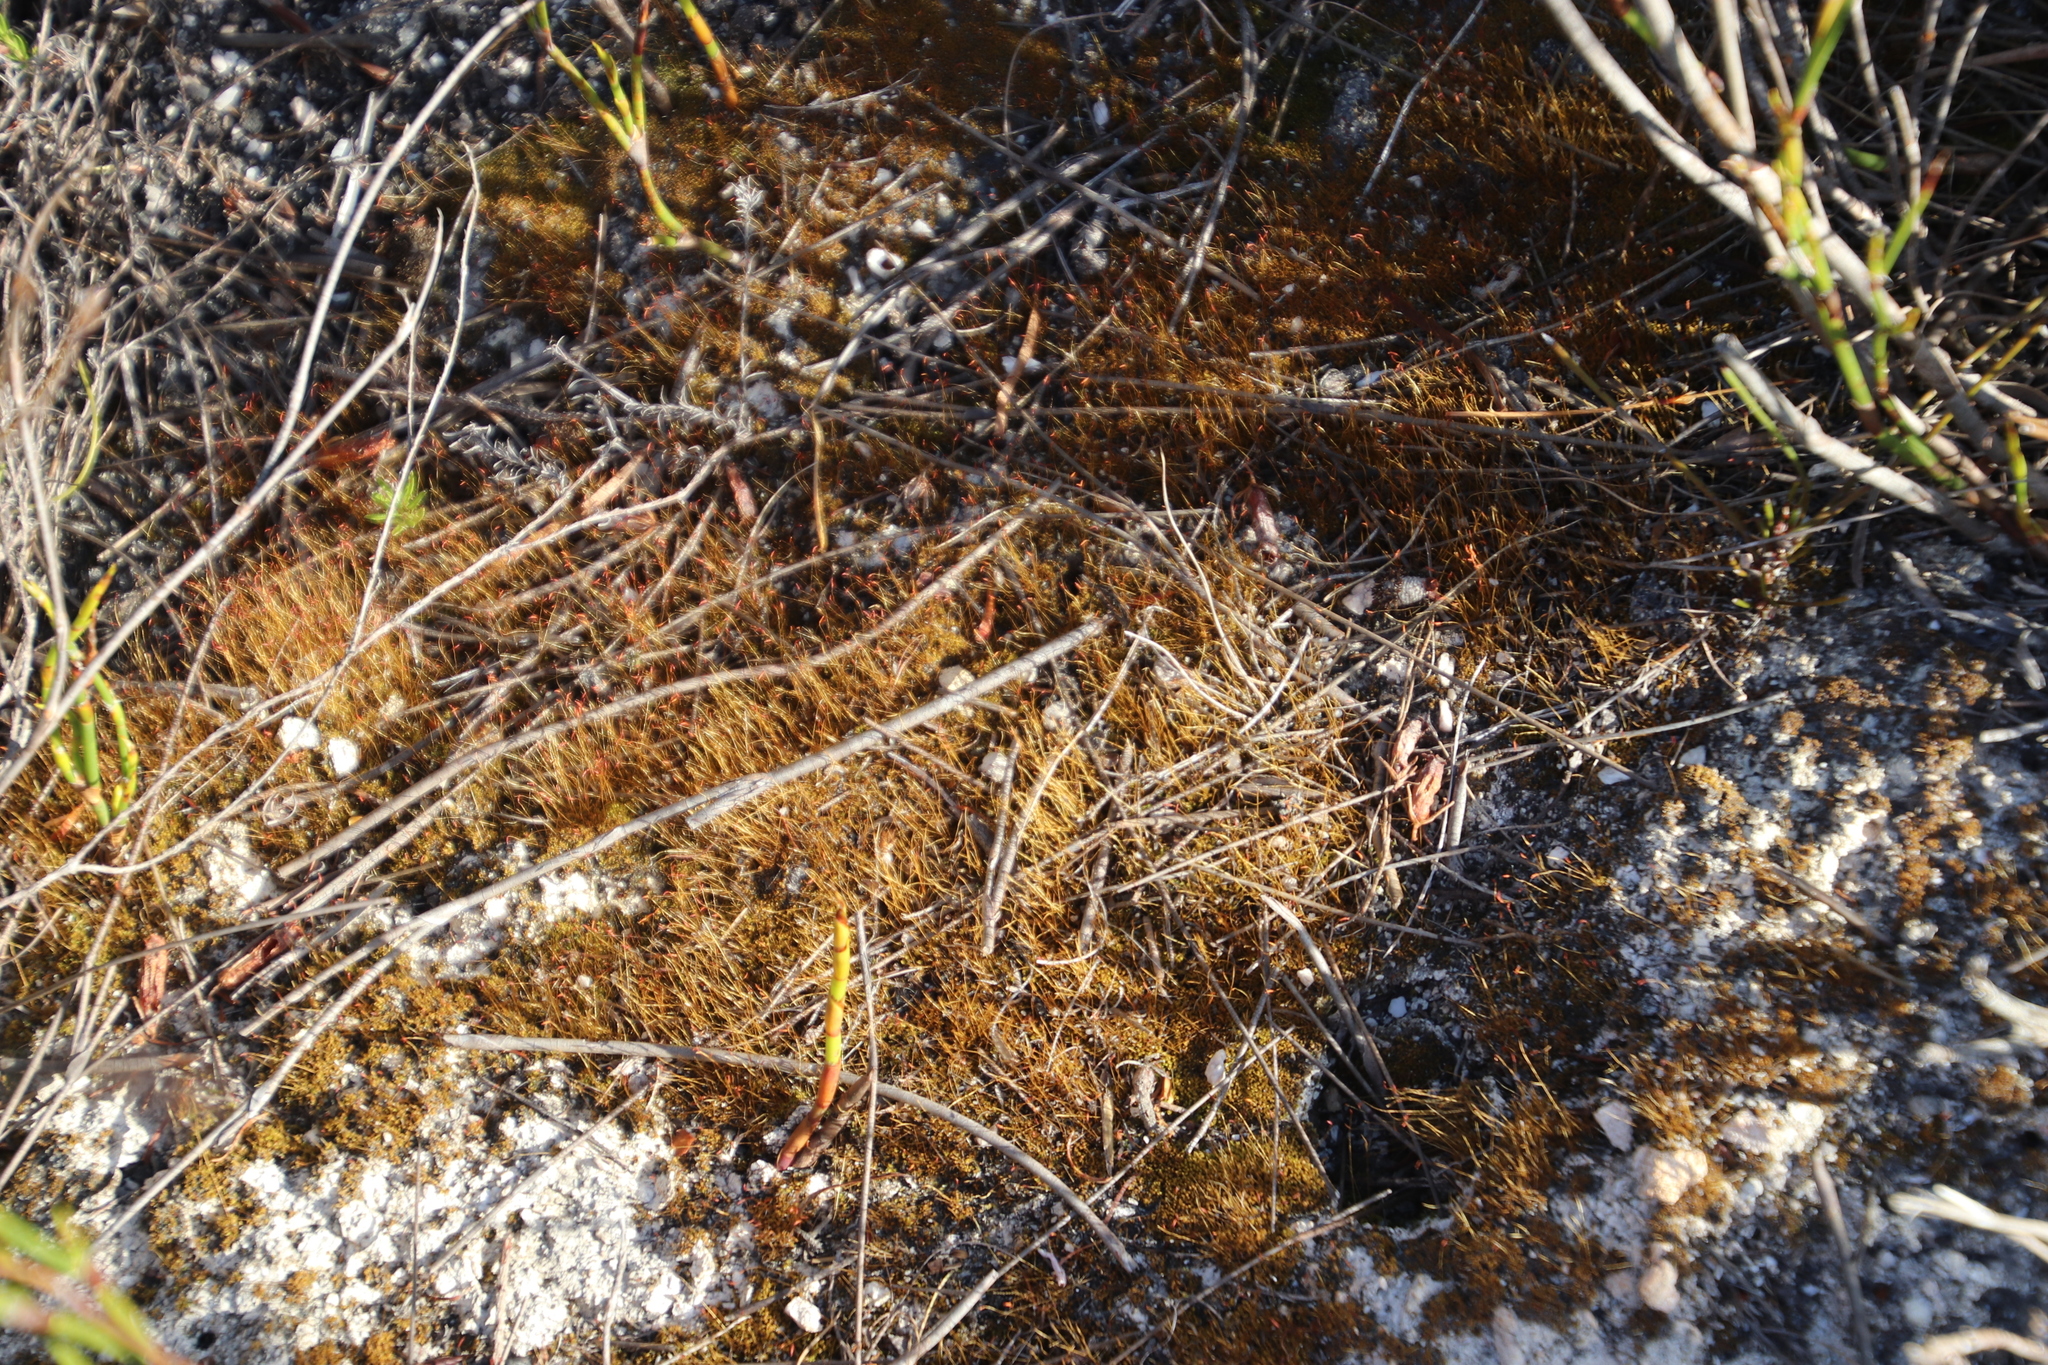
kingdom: Plantae
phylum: Bryophyta
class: Bryopsida
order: Dicranales
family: Ditrichaceae
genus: Ceratodon
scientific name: Ceratodon purpureus
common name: Redshank
